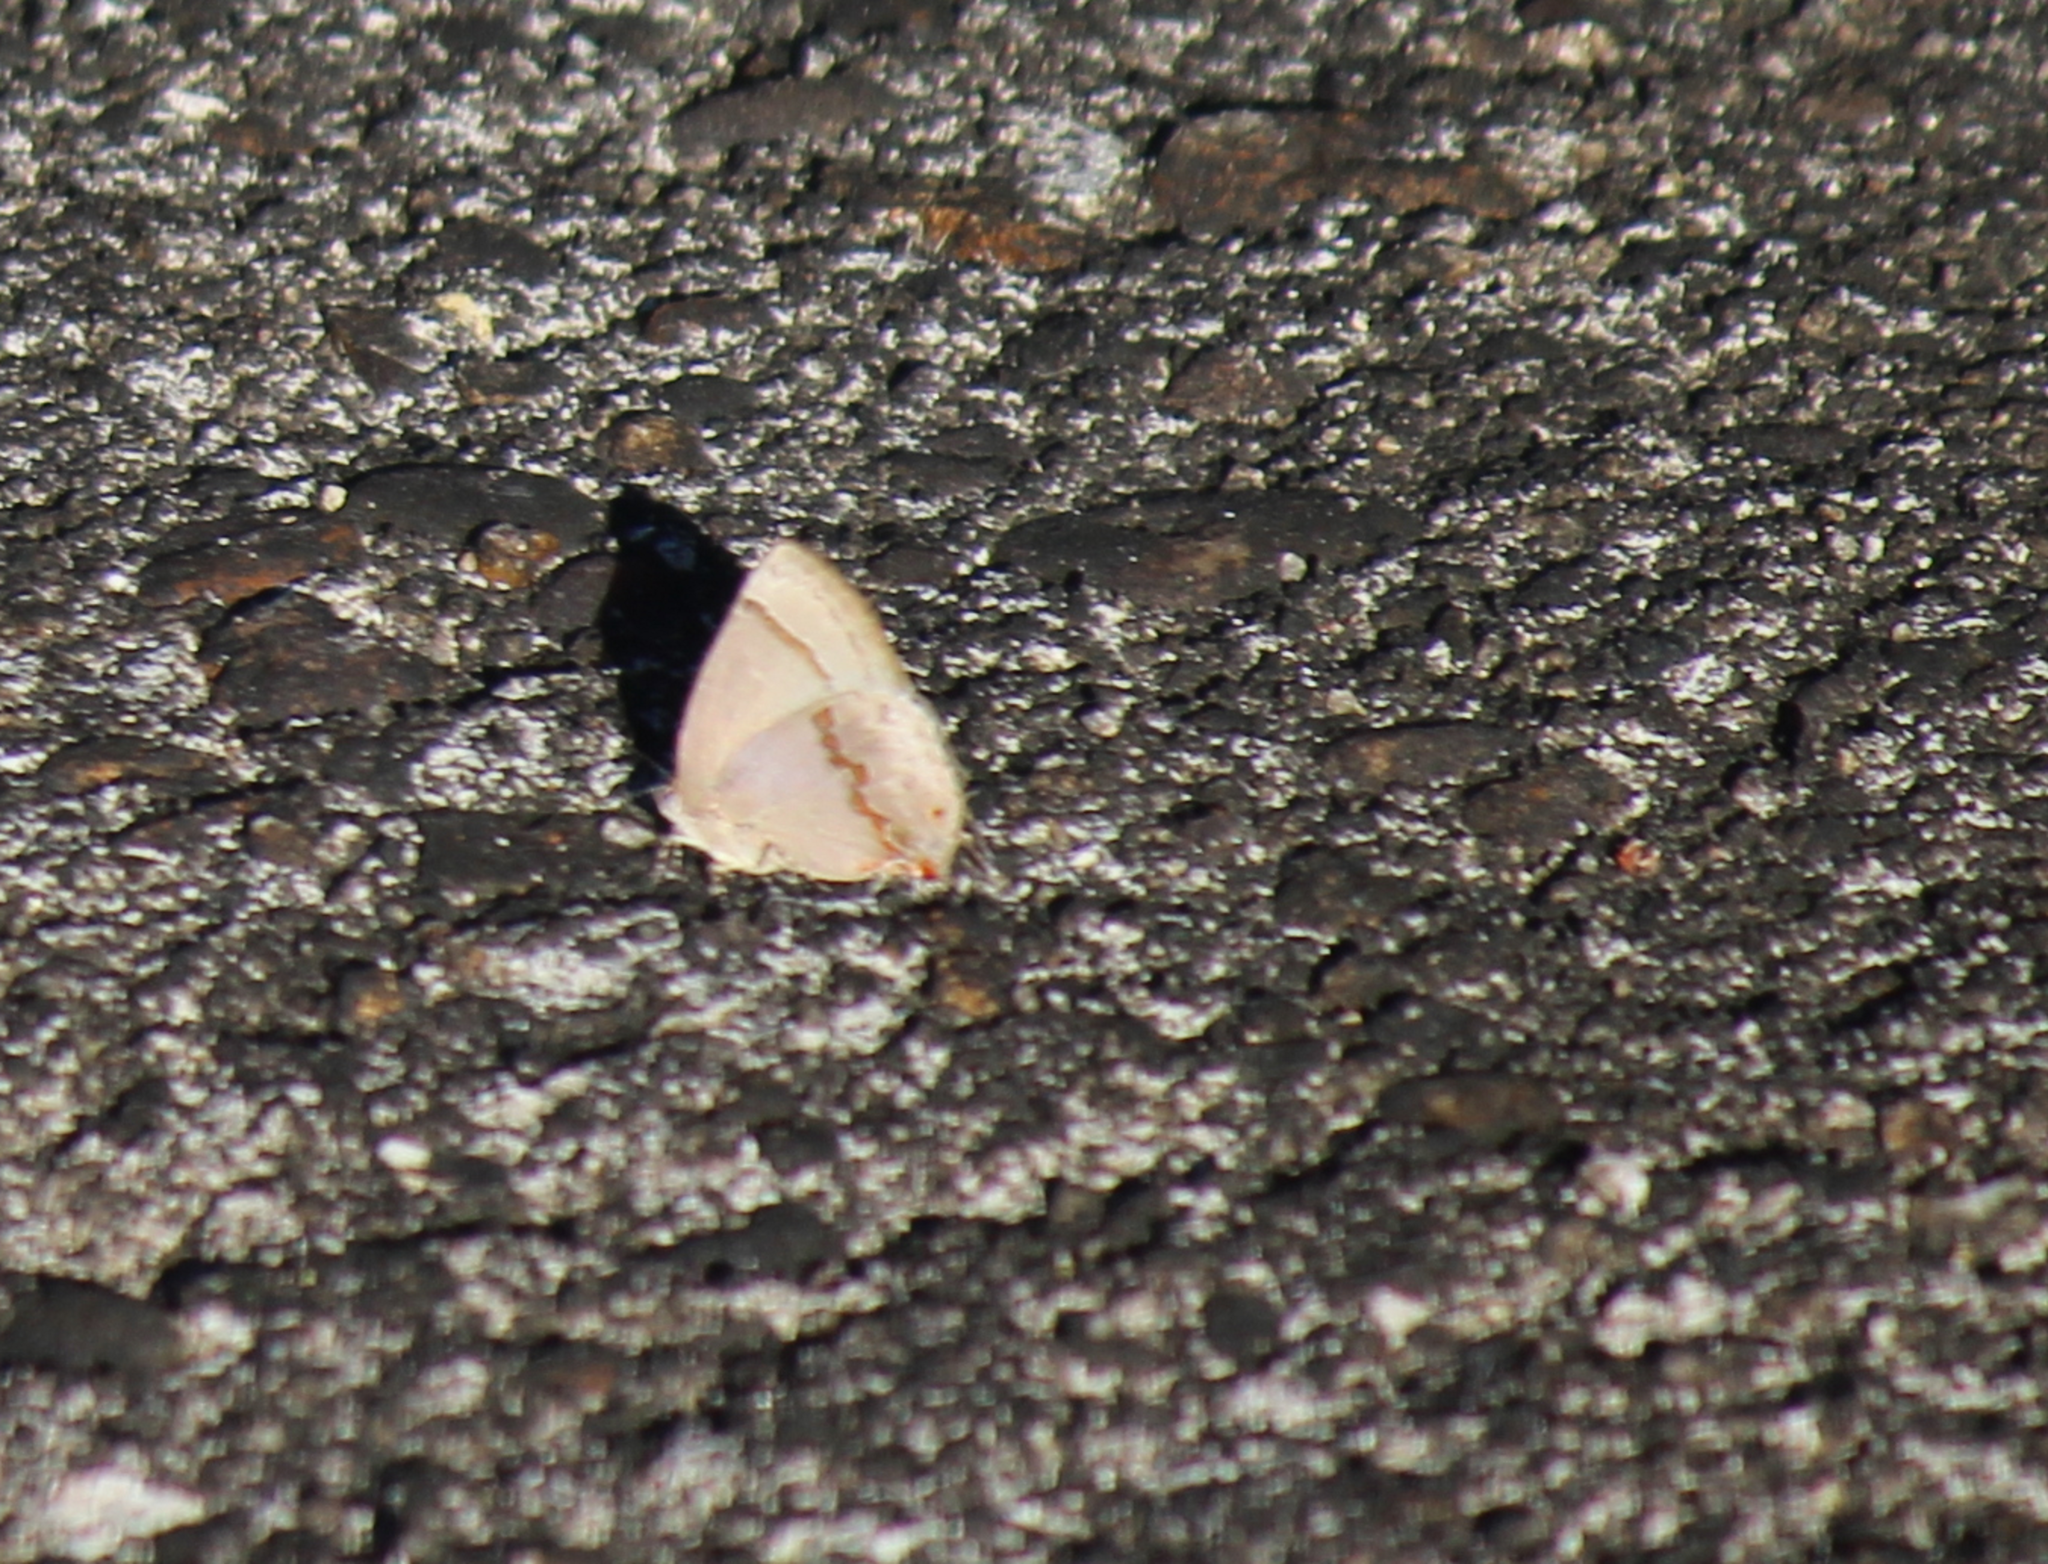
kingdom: Animalia
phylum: Arthropoda
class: Insecta
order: Lepidoptera
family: Lycaenidae
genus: Nicolaea
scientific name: Nicolaea
